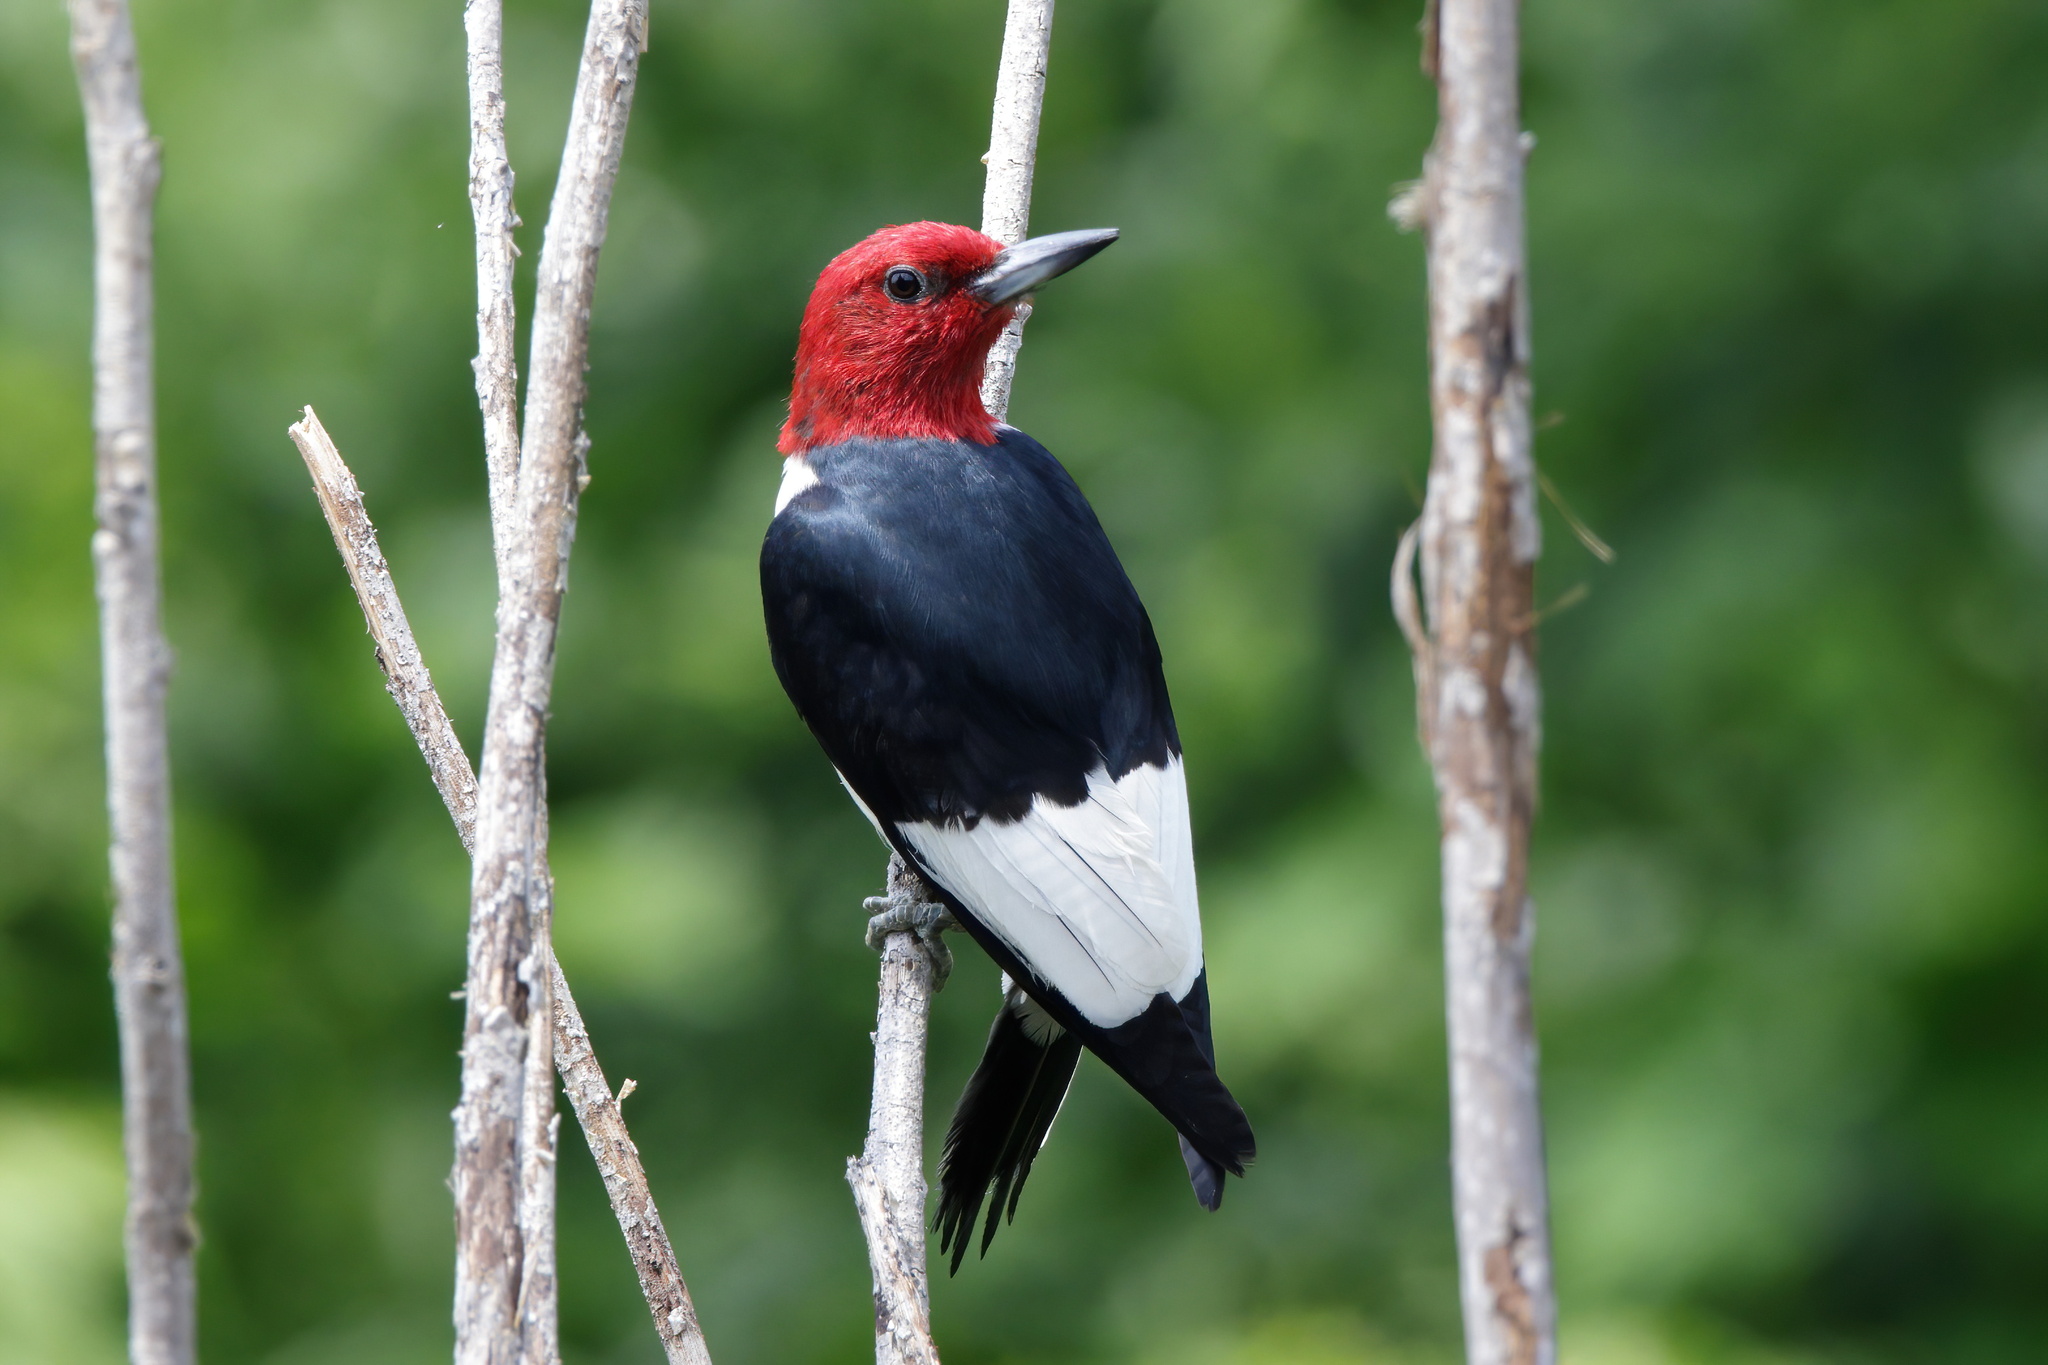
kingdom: Animalia
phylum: Chordata
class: Aves
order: Piciformes
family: Picidae
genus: Melanerpes
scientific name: Melanerpes erythrocephalus
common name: Red-headed woodpecker
